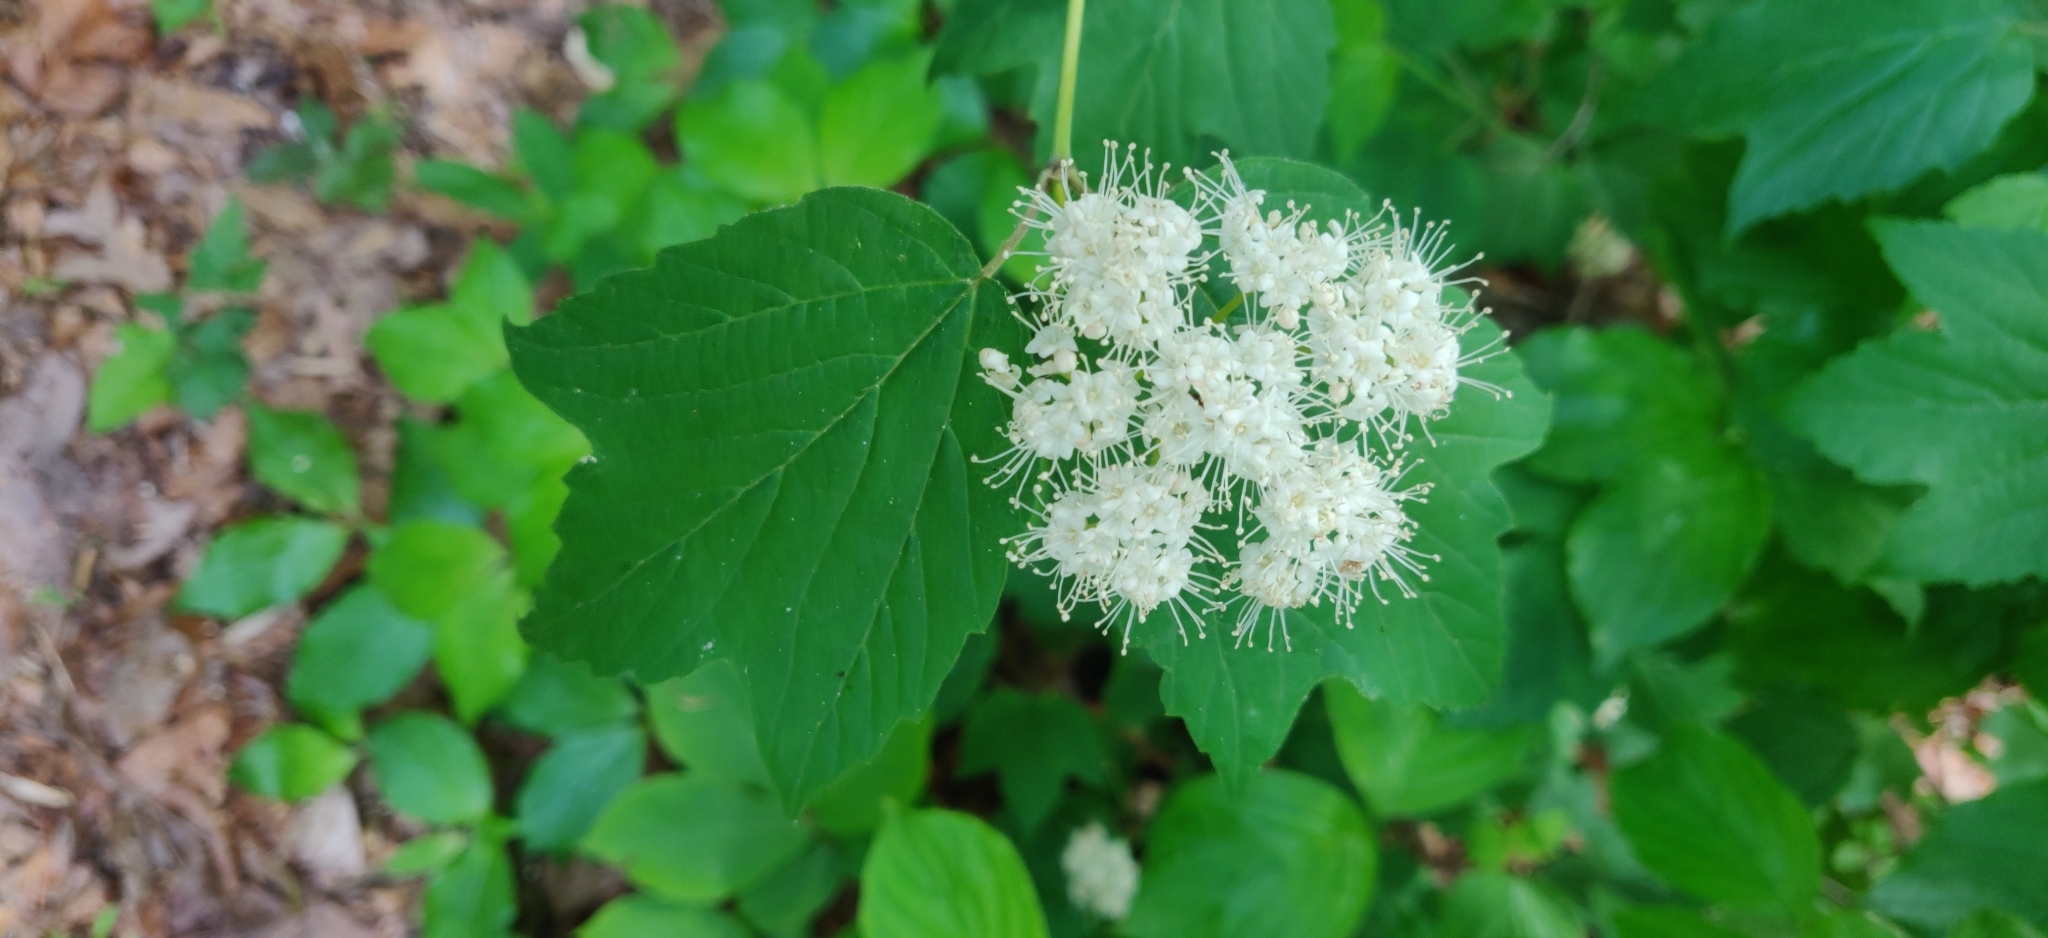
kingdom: Plantae
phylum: Tracheophyta
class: Magnoliopsida
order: Dipsacales
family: Viburnaceae
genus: Viburnum
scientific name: Viburnum acerifolium
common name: Dockmackie
